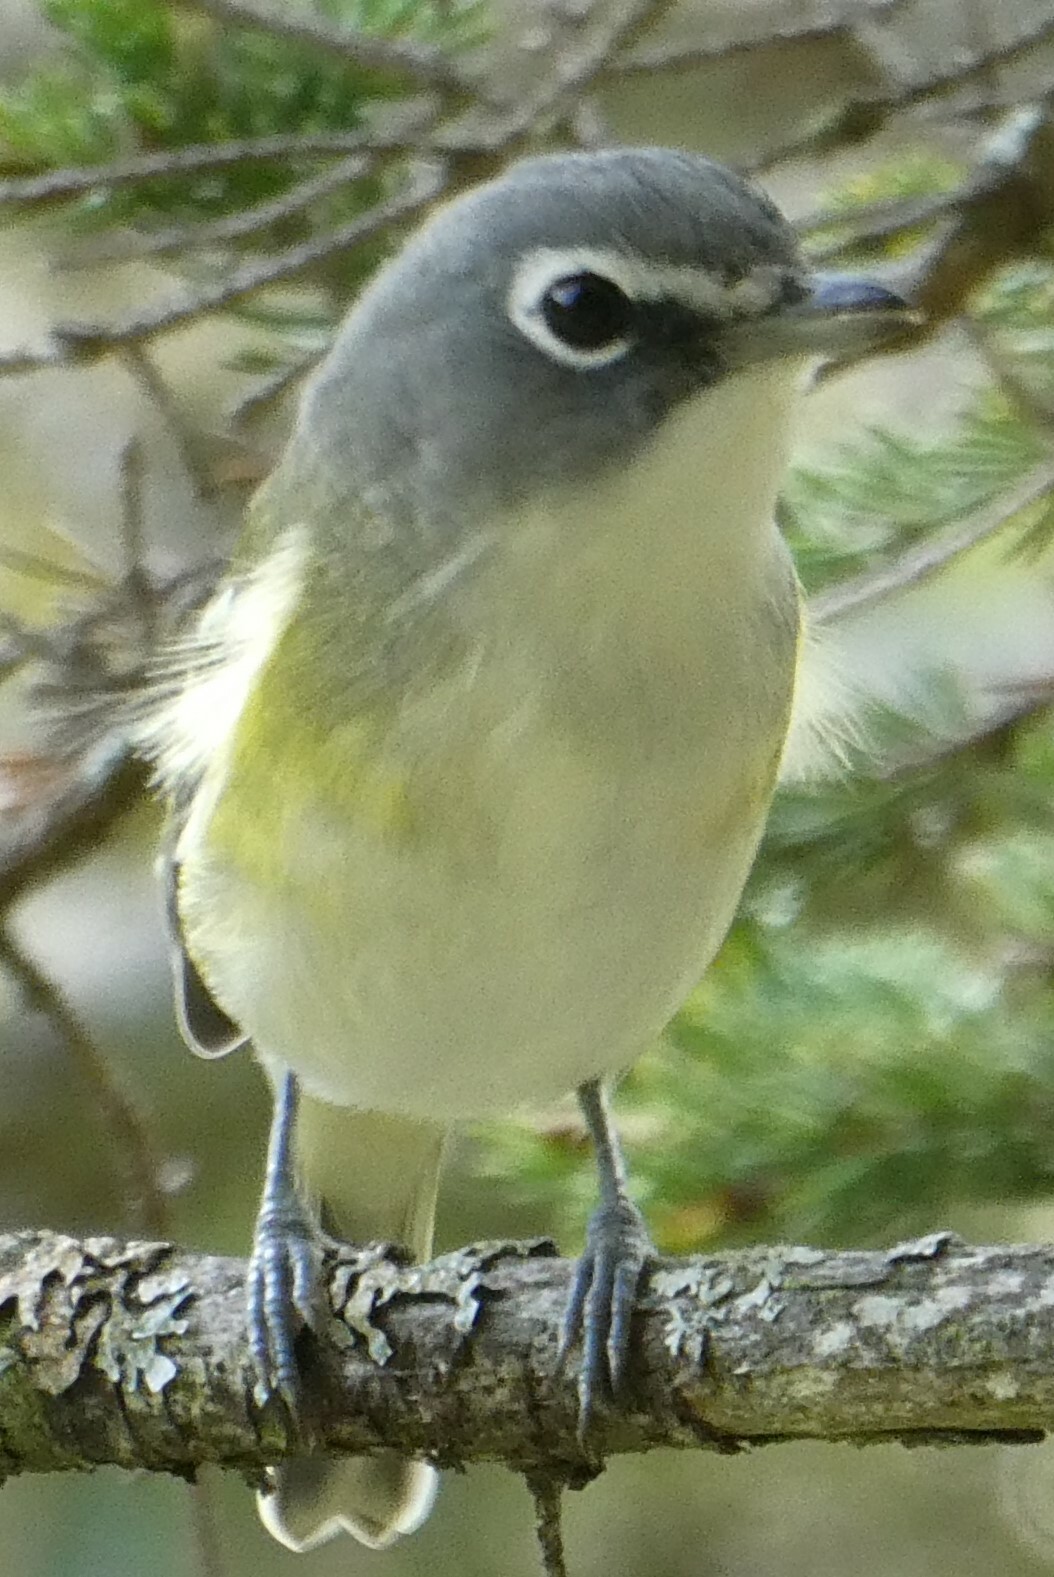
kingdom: Animalia
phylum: Chordata
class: Aves
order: Passeriformes
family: Vireonidae
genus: Vireo
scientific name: Vireo solitarius
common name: Blue-headed vireo
